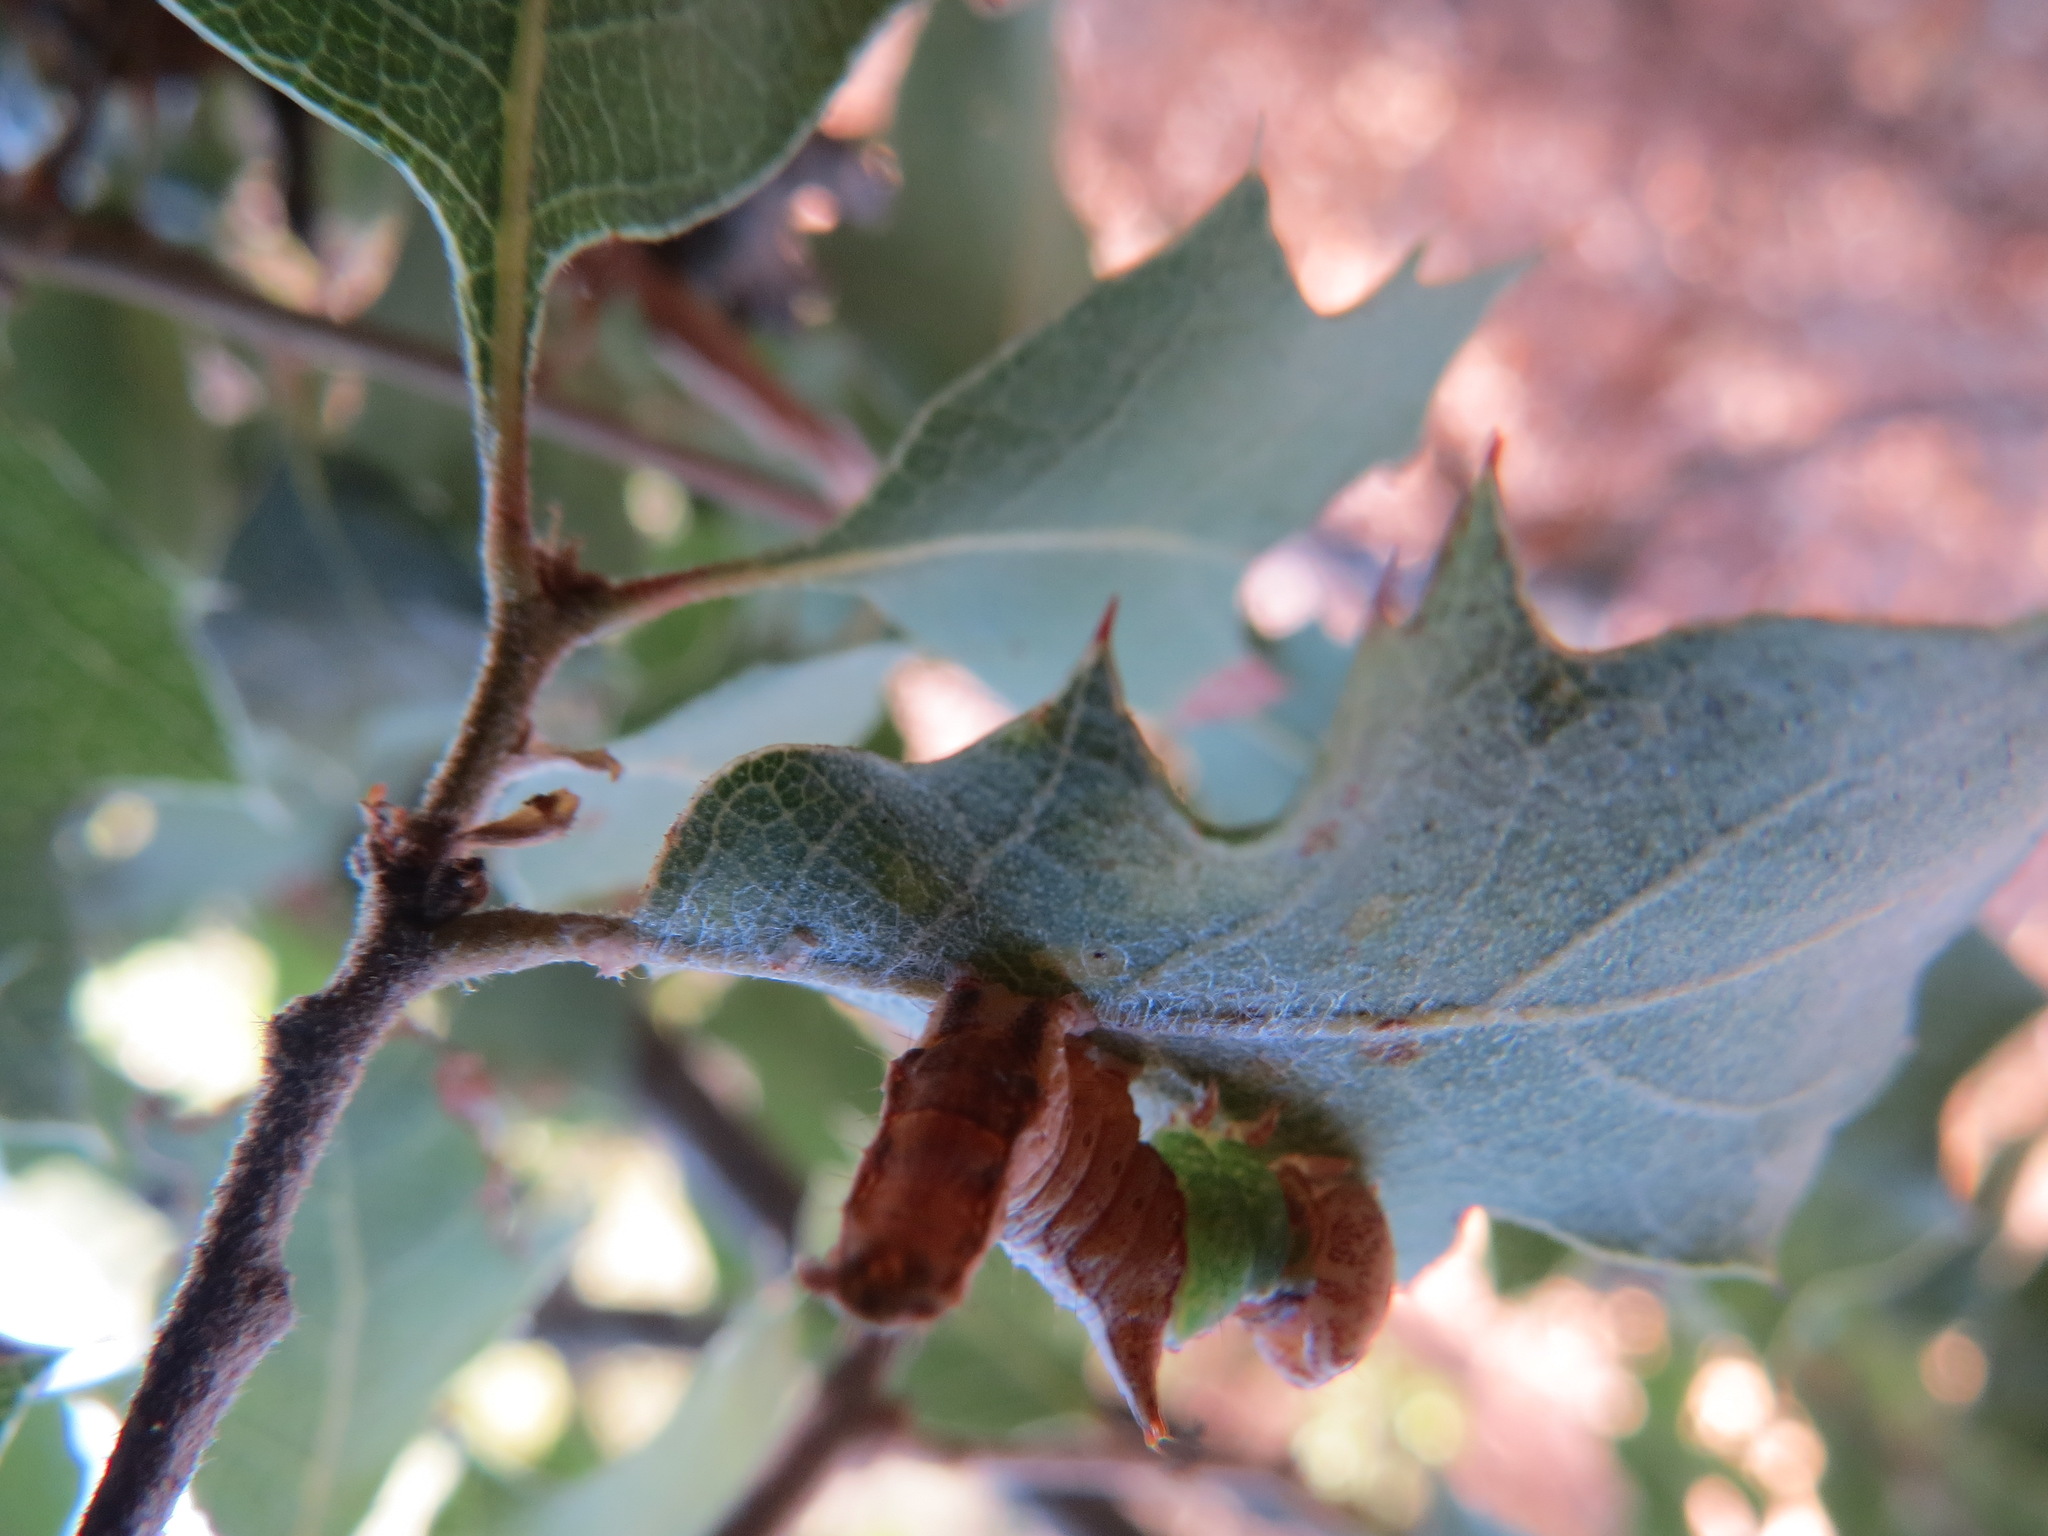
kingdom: Animalia
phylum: Arthropoda
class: Insecta
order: Lepidoptera
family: Notodontidae
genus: Schizura
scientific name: Schizura
